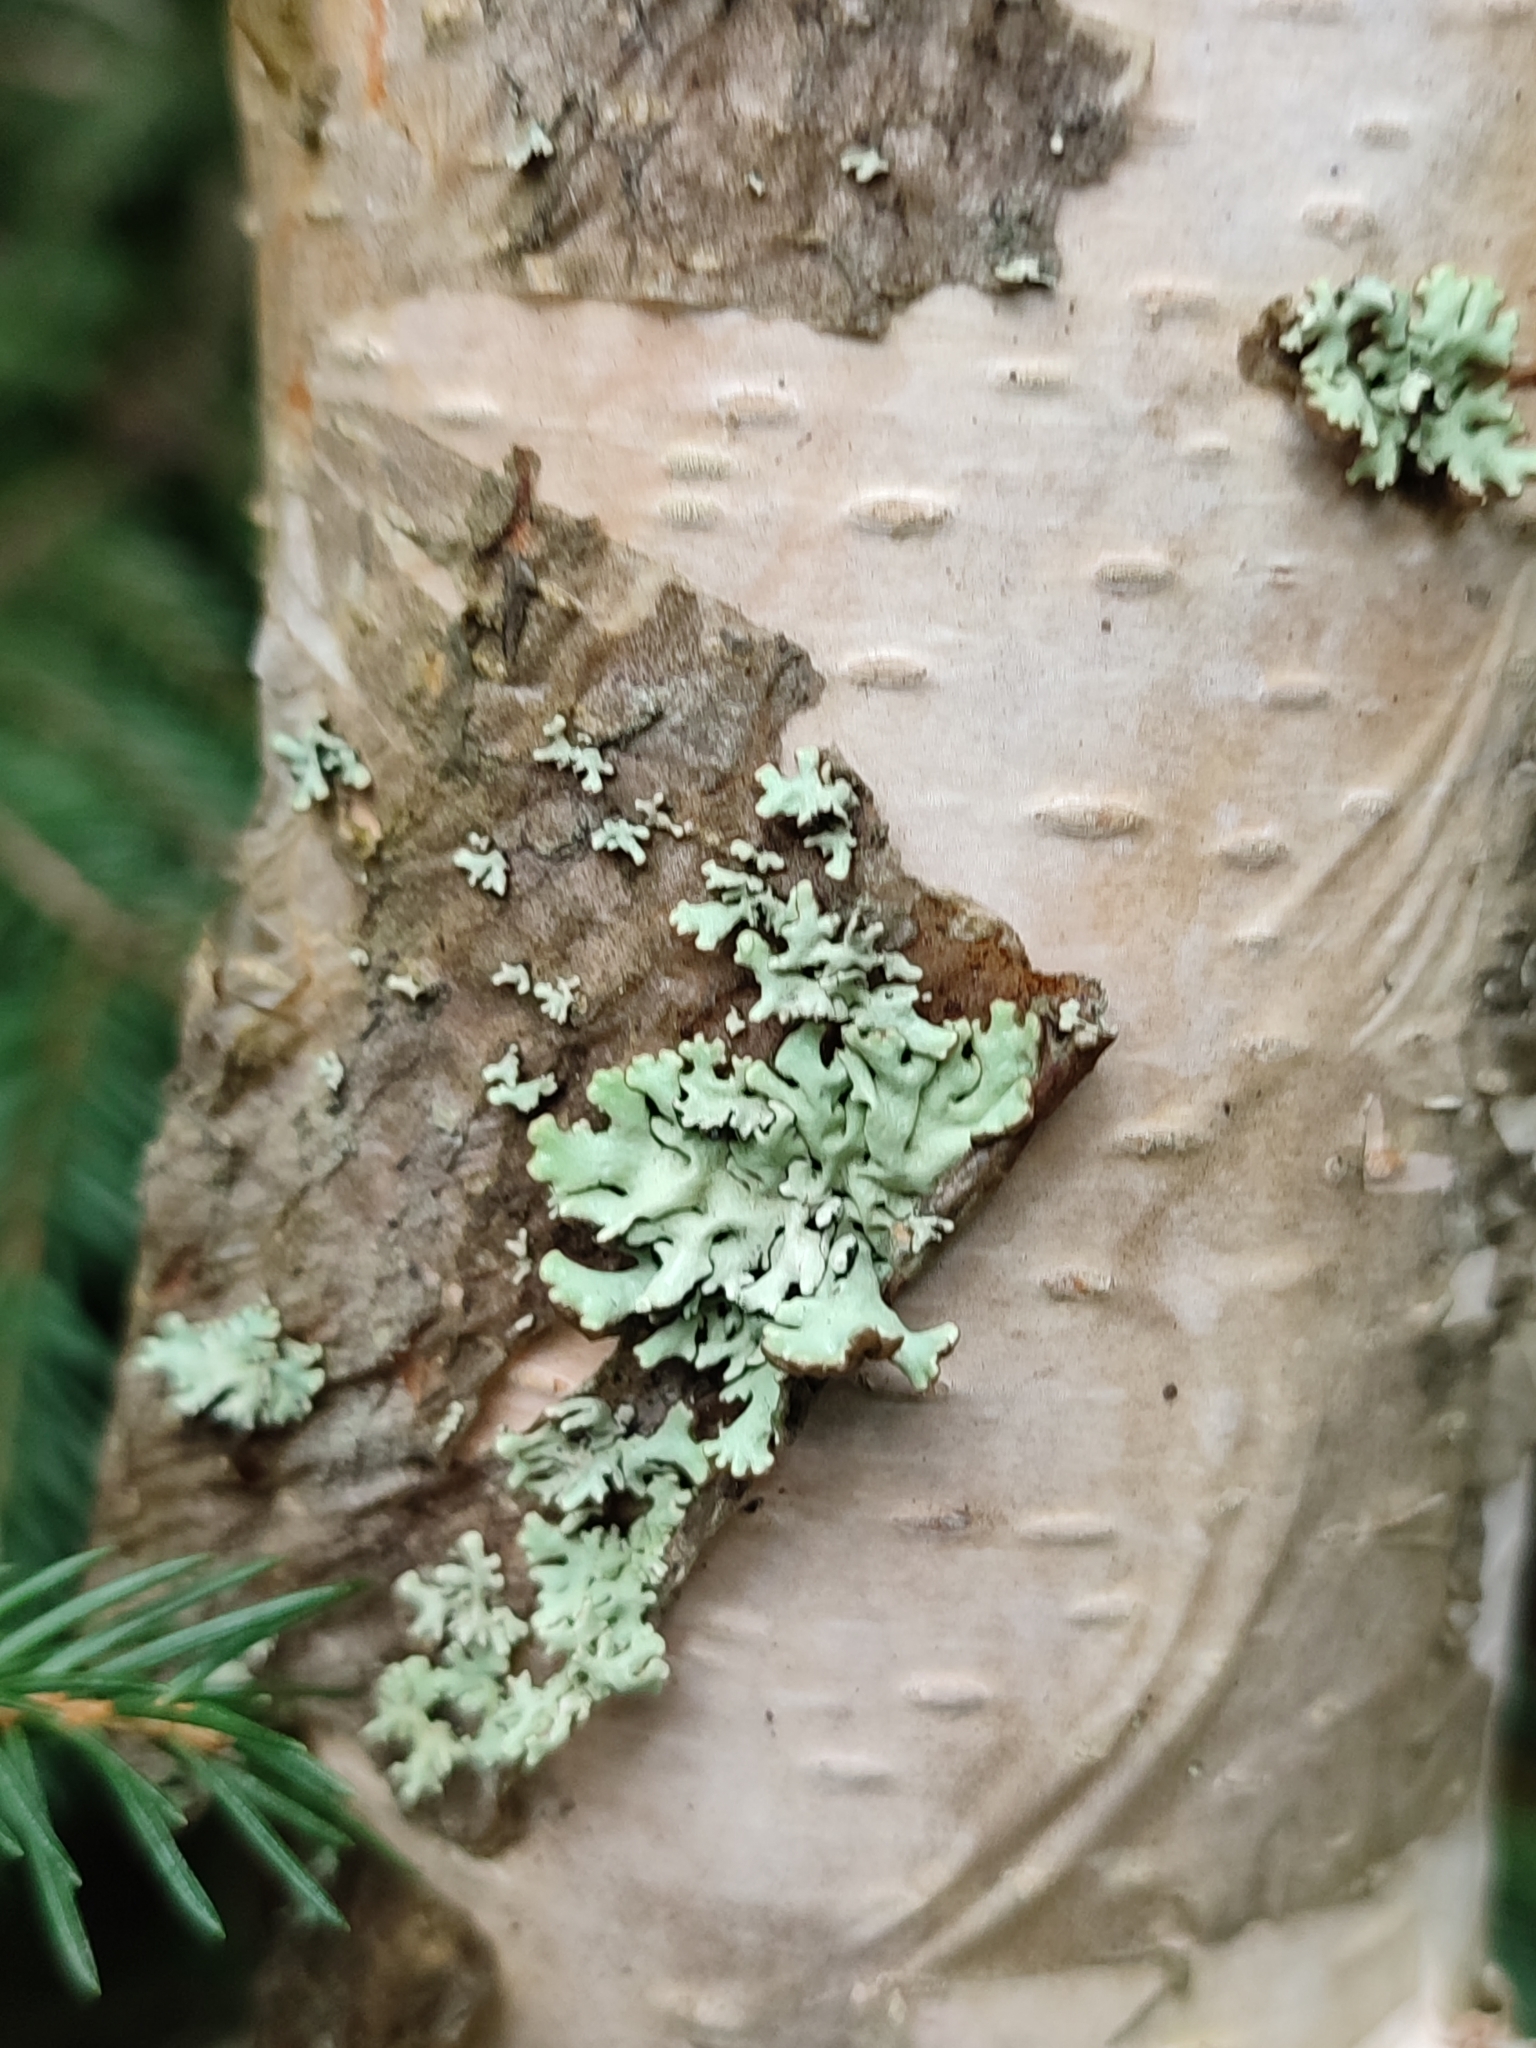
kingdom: Fungi
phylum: Ascomycota
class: Lecanoromycetes
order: Lecanorales
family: Parmeliaceae
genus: Hypogymnia
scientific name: Hypogymnia physodes
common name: Dark crottle
